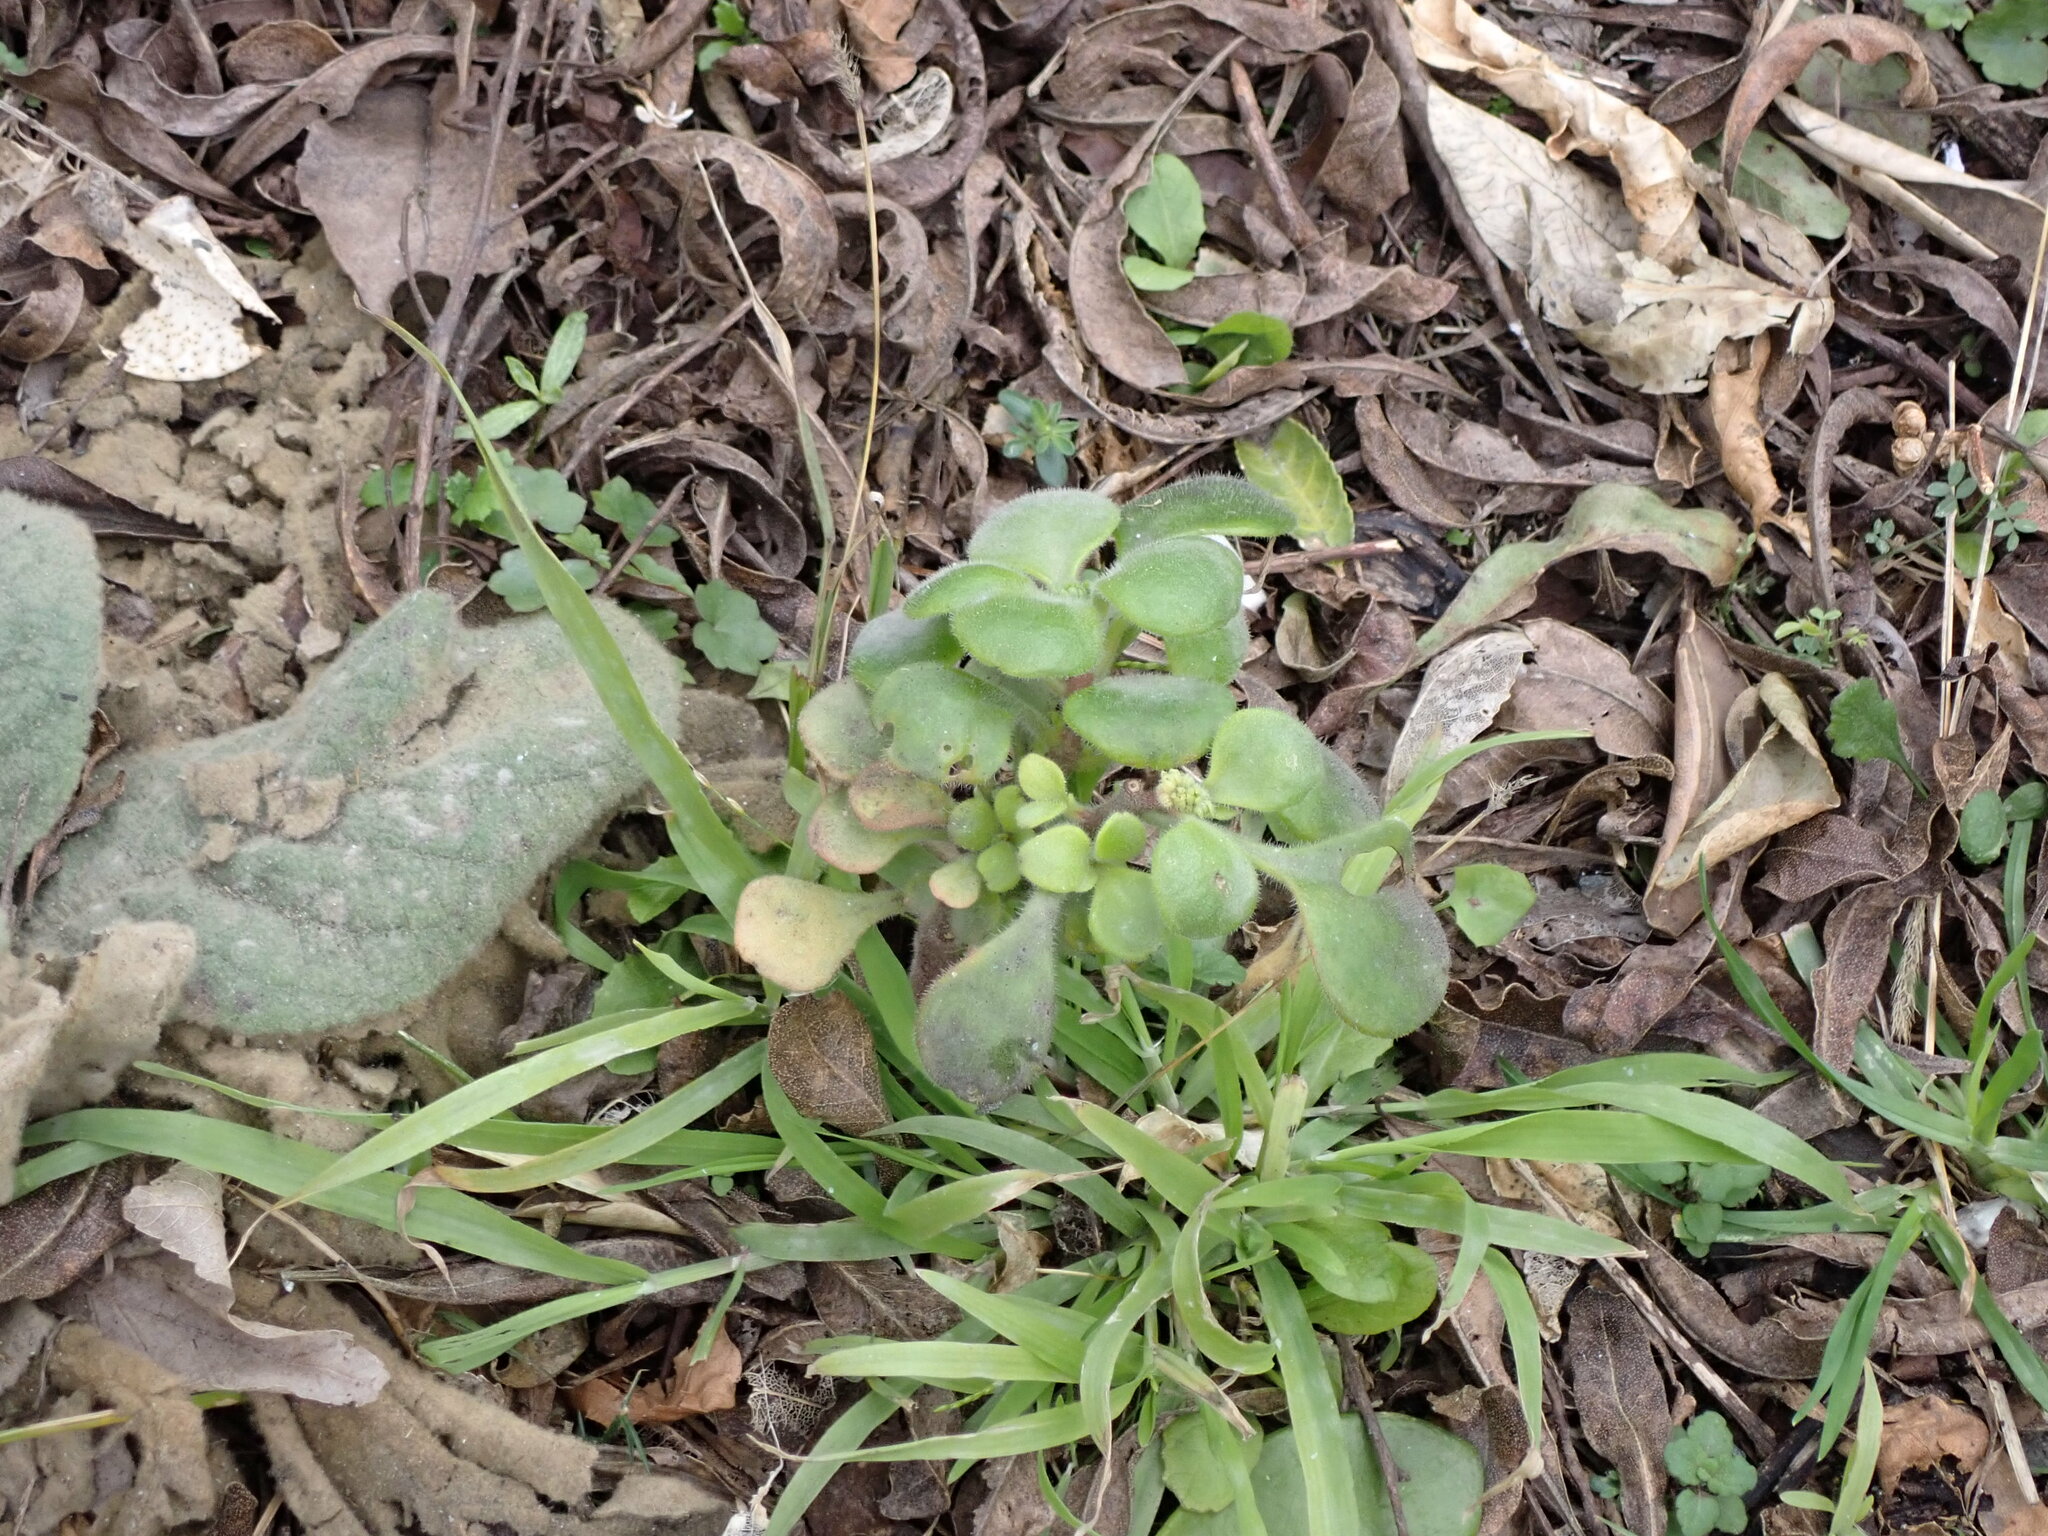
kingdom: Plantae
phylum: Tracheophyta
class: Magnoliopsida
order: Saxifragales
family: Crassulaceae
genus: Aichryson
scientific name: Aichryson laxum
